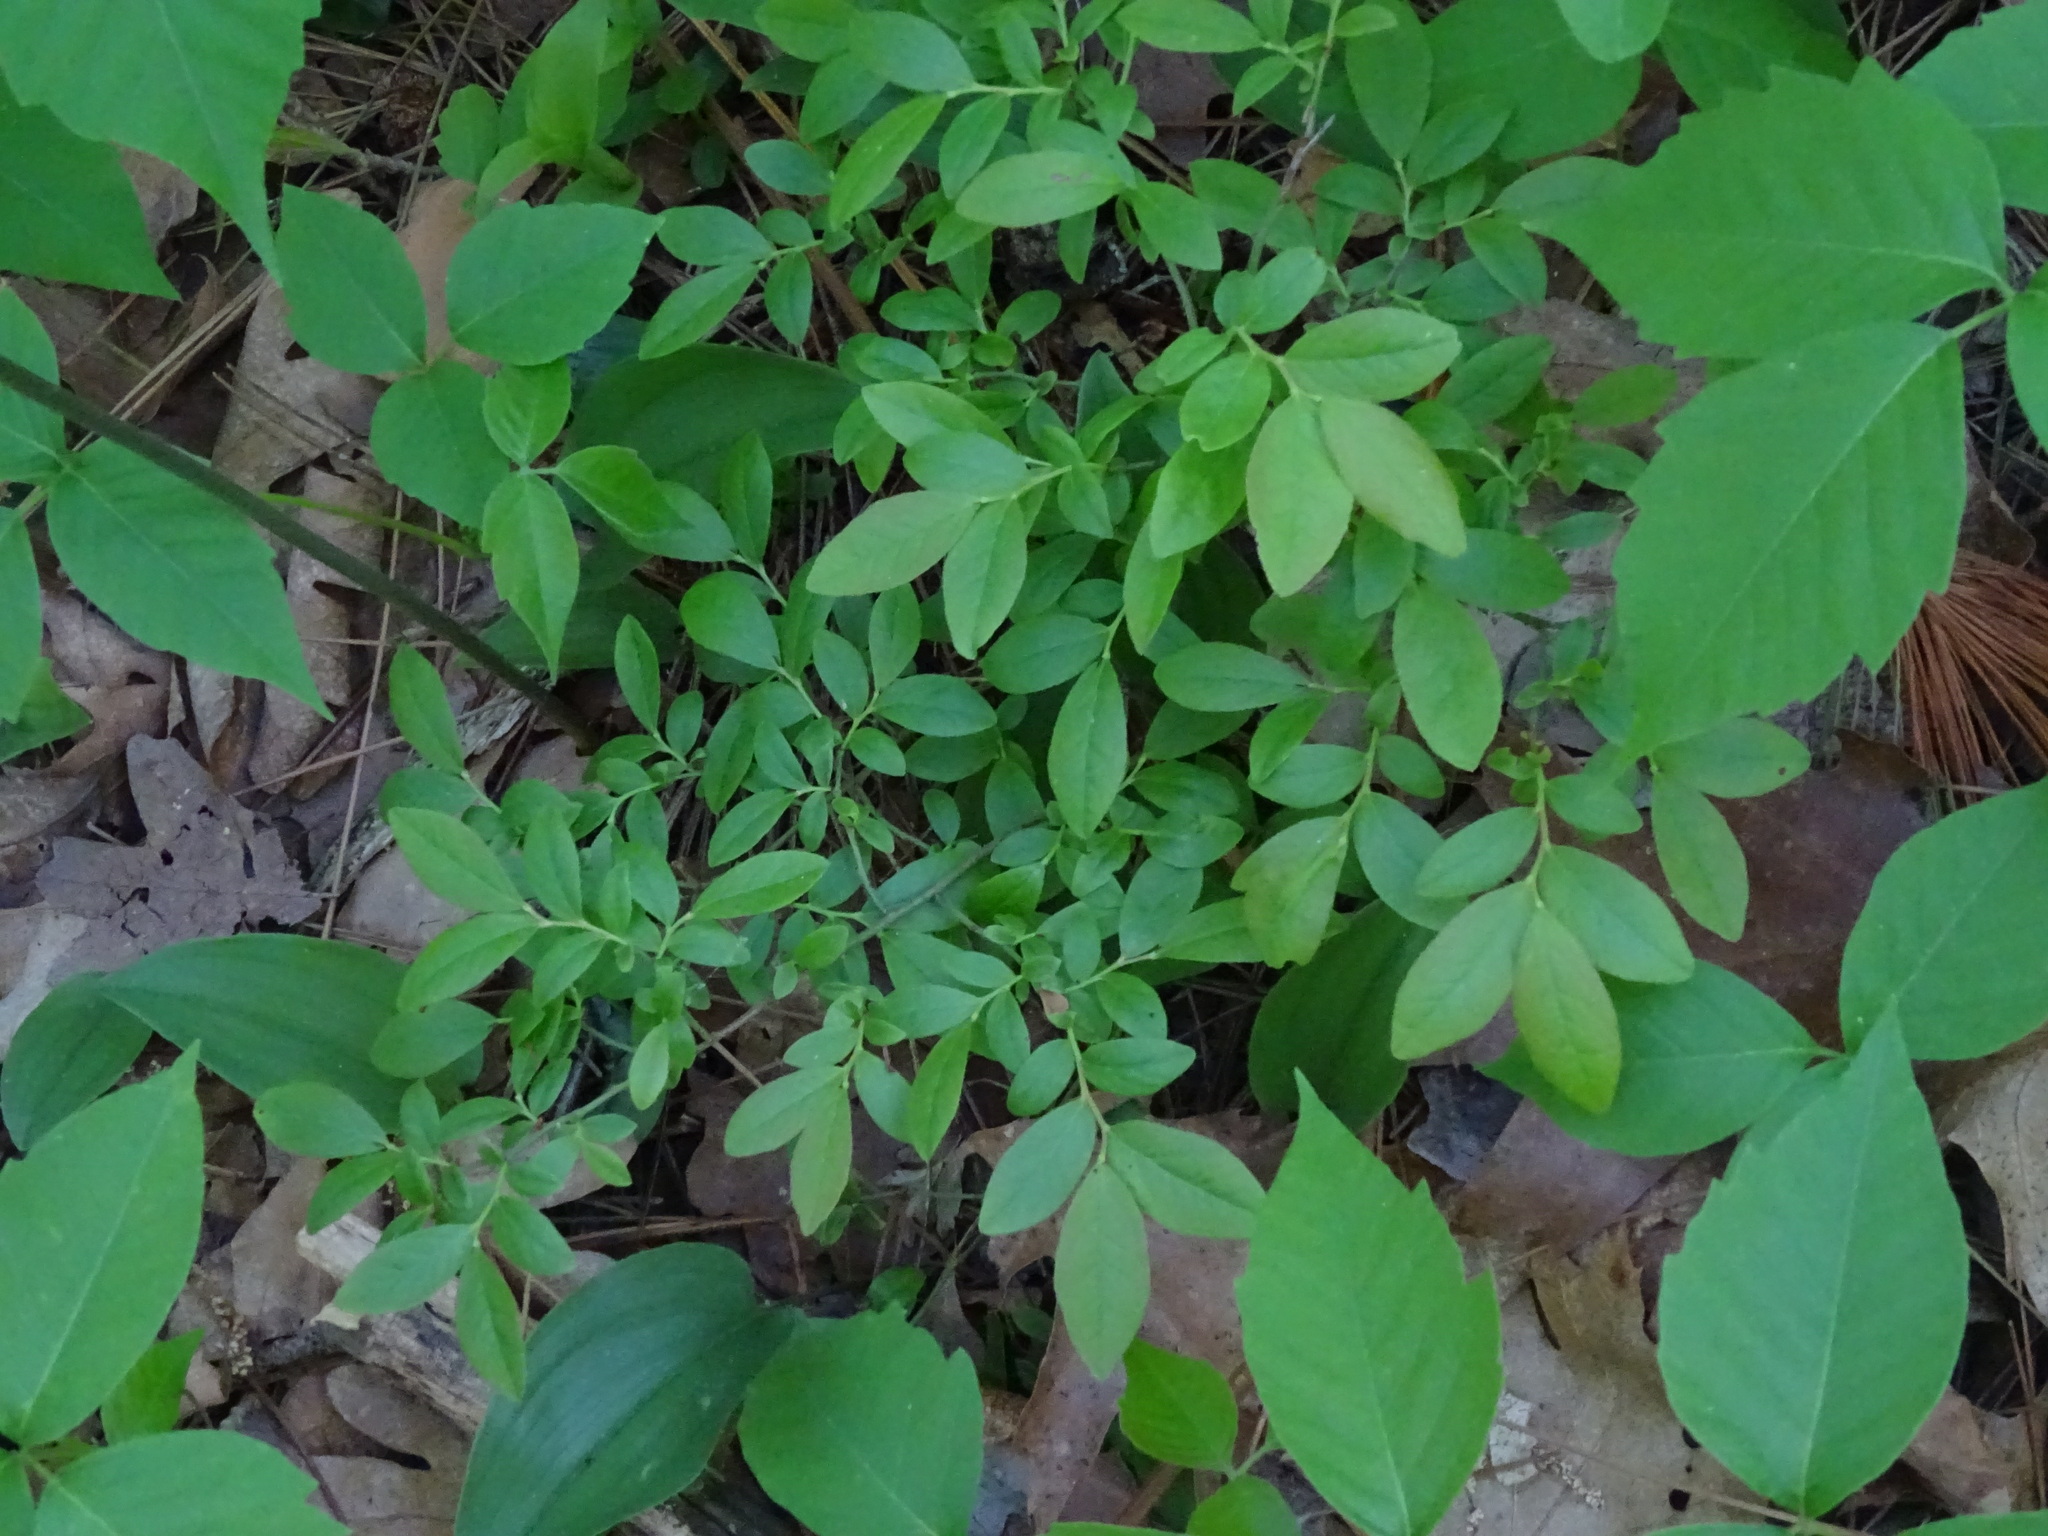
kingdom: Plantae
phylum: Tracheophyta
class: Magnoliopsida
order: Ericales
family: Ericaceae
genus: Vaccinium
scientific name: Vaccinium angustifolium
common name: Early lowbush blueberry
